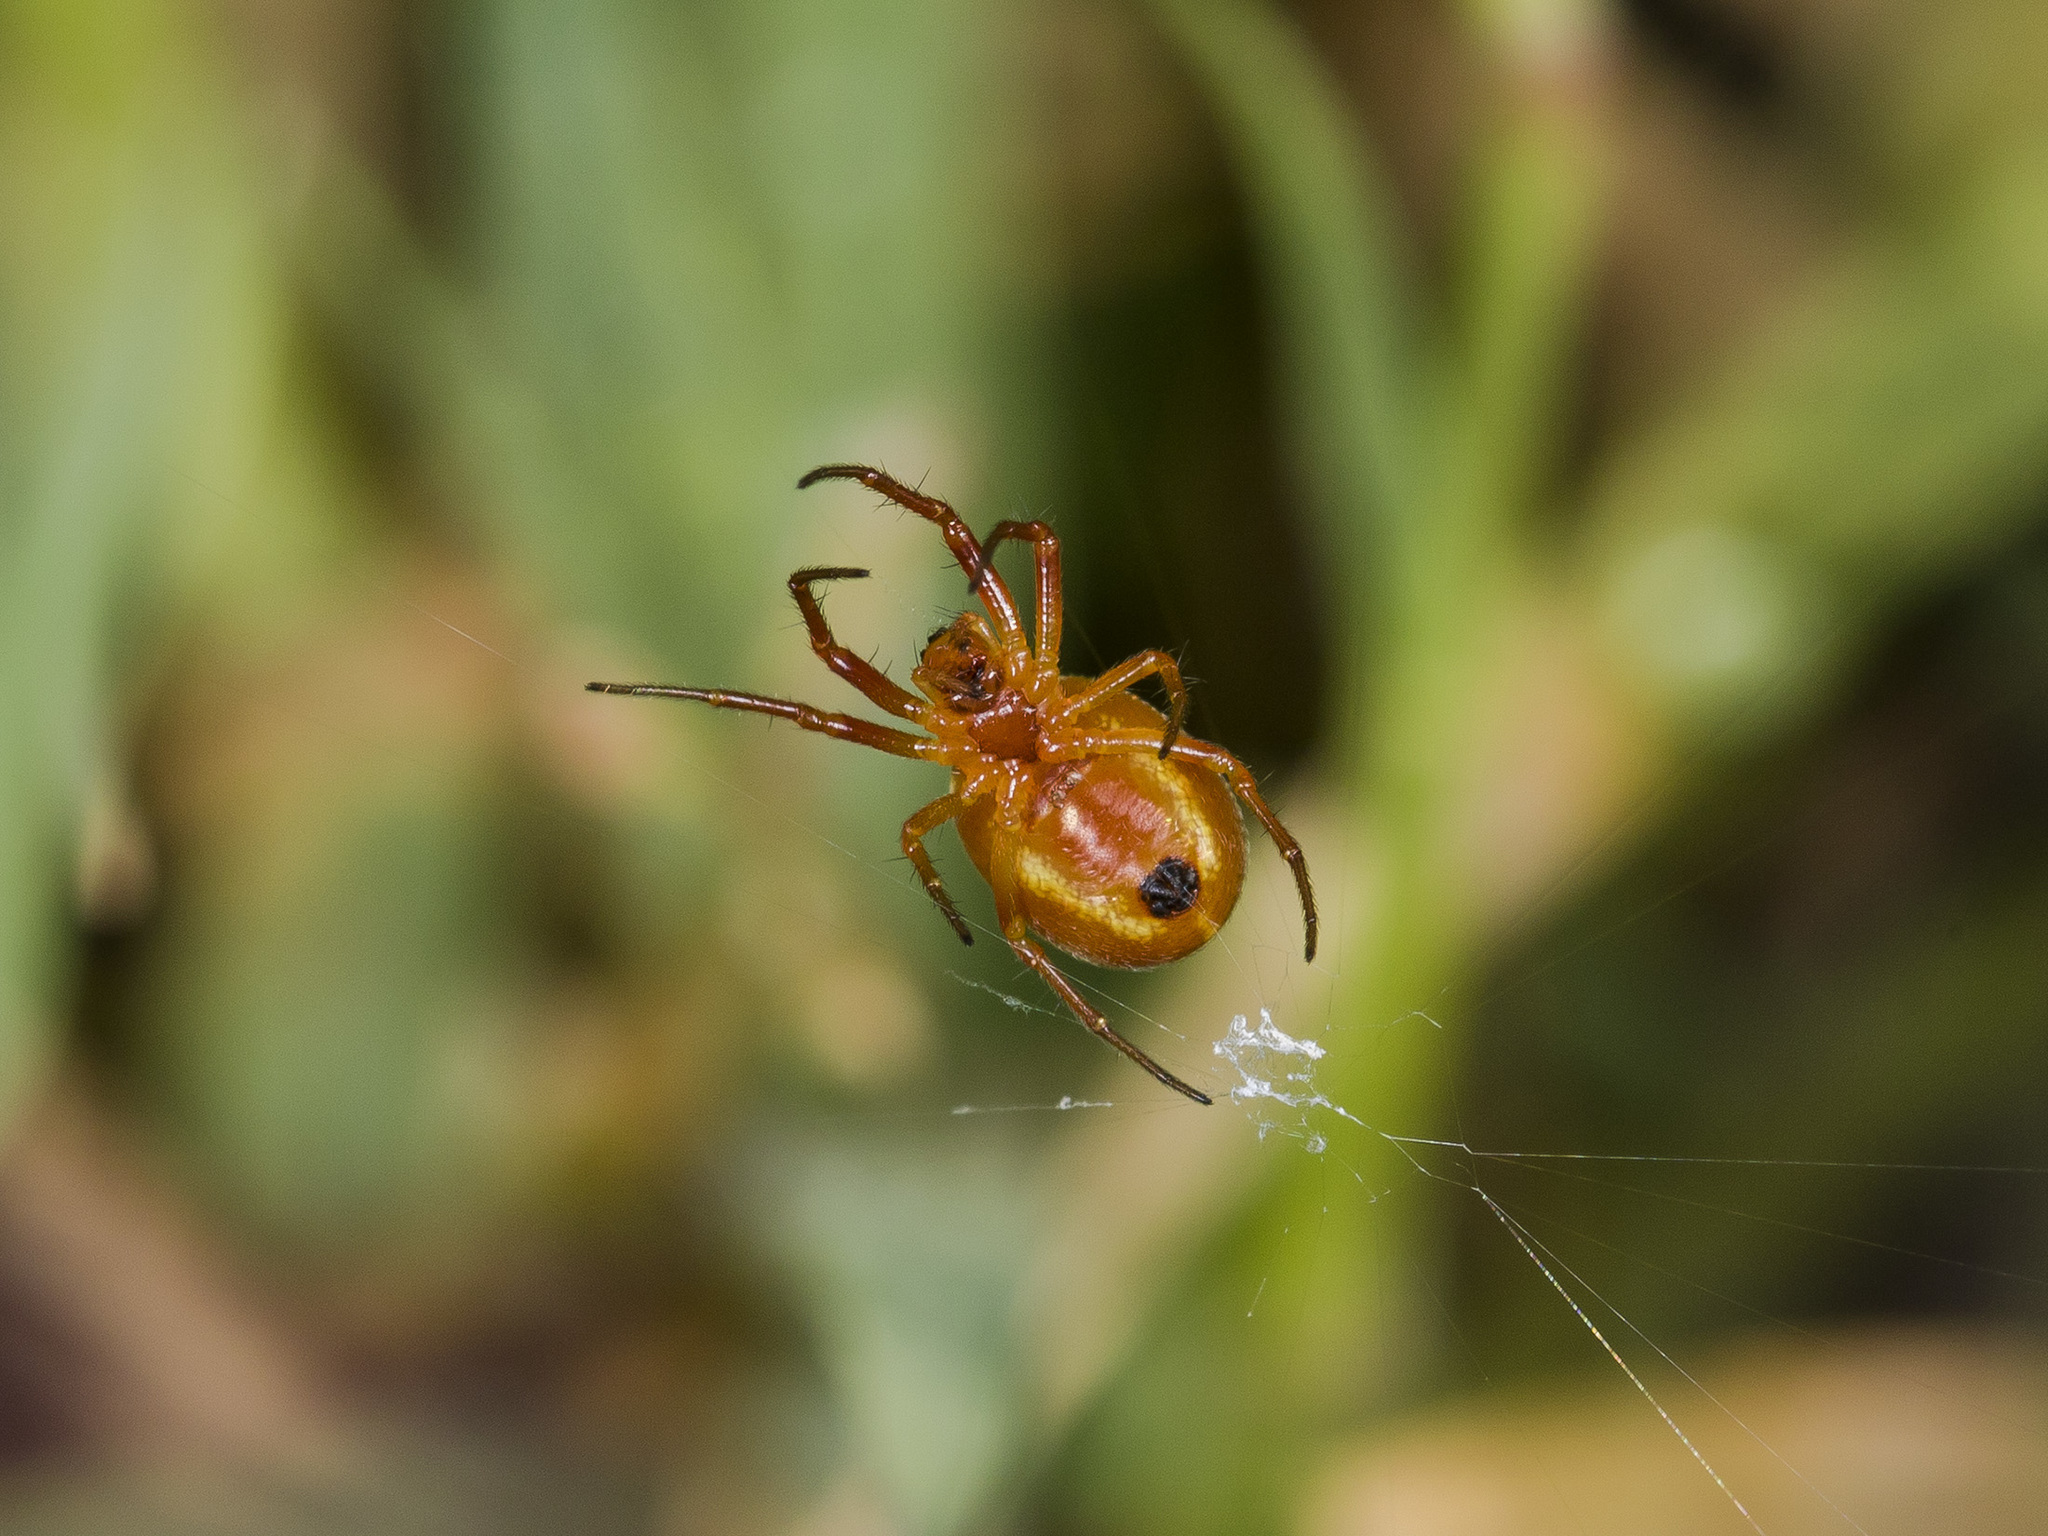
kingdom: Animalia
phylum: Arthropoda
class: Arachnida
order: Araneae
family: Araneidae
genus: Hypsosinga
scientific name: Hypsosinga sanguinea
